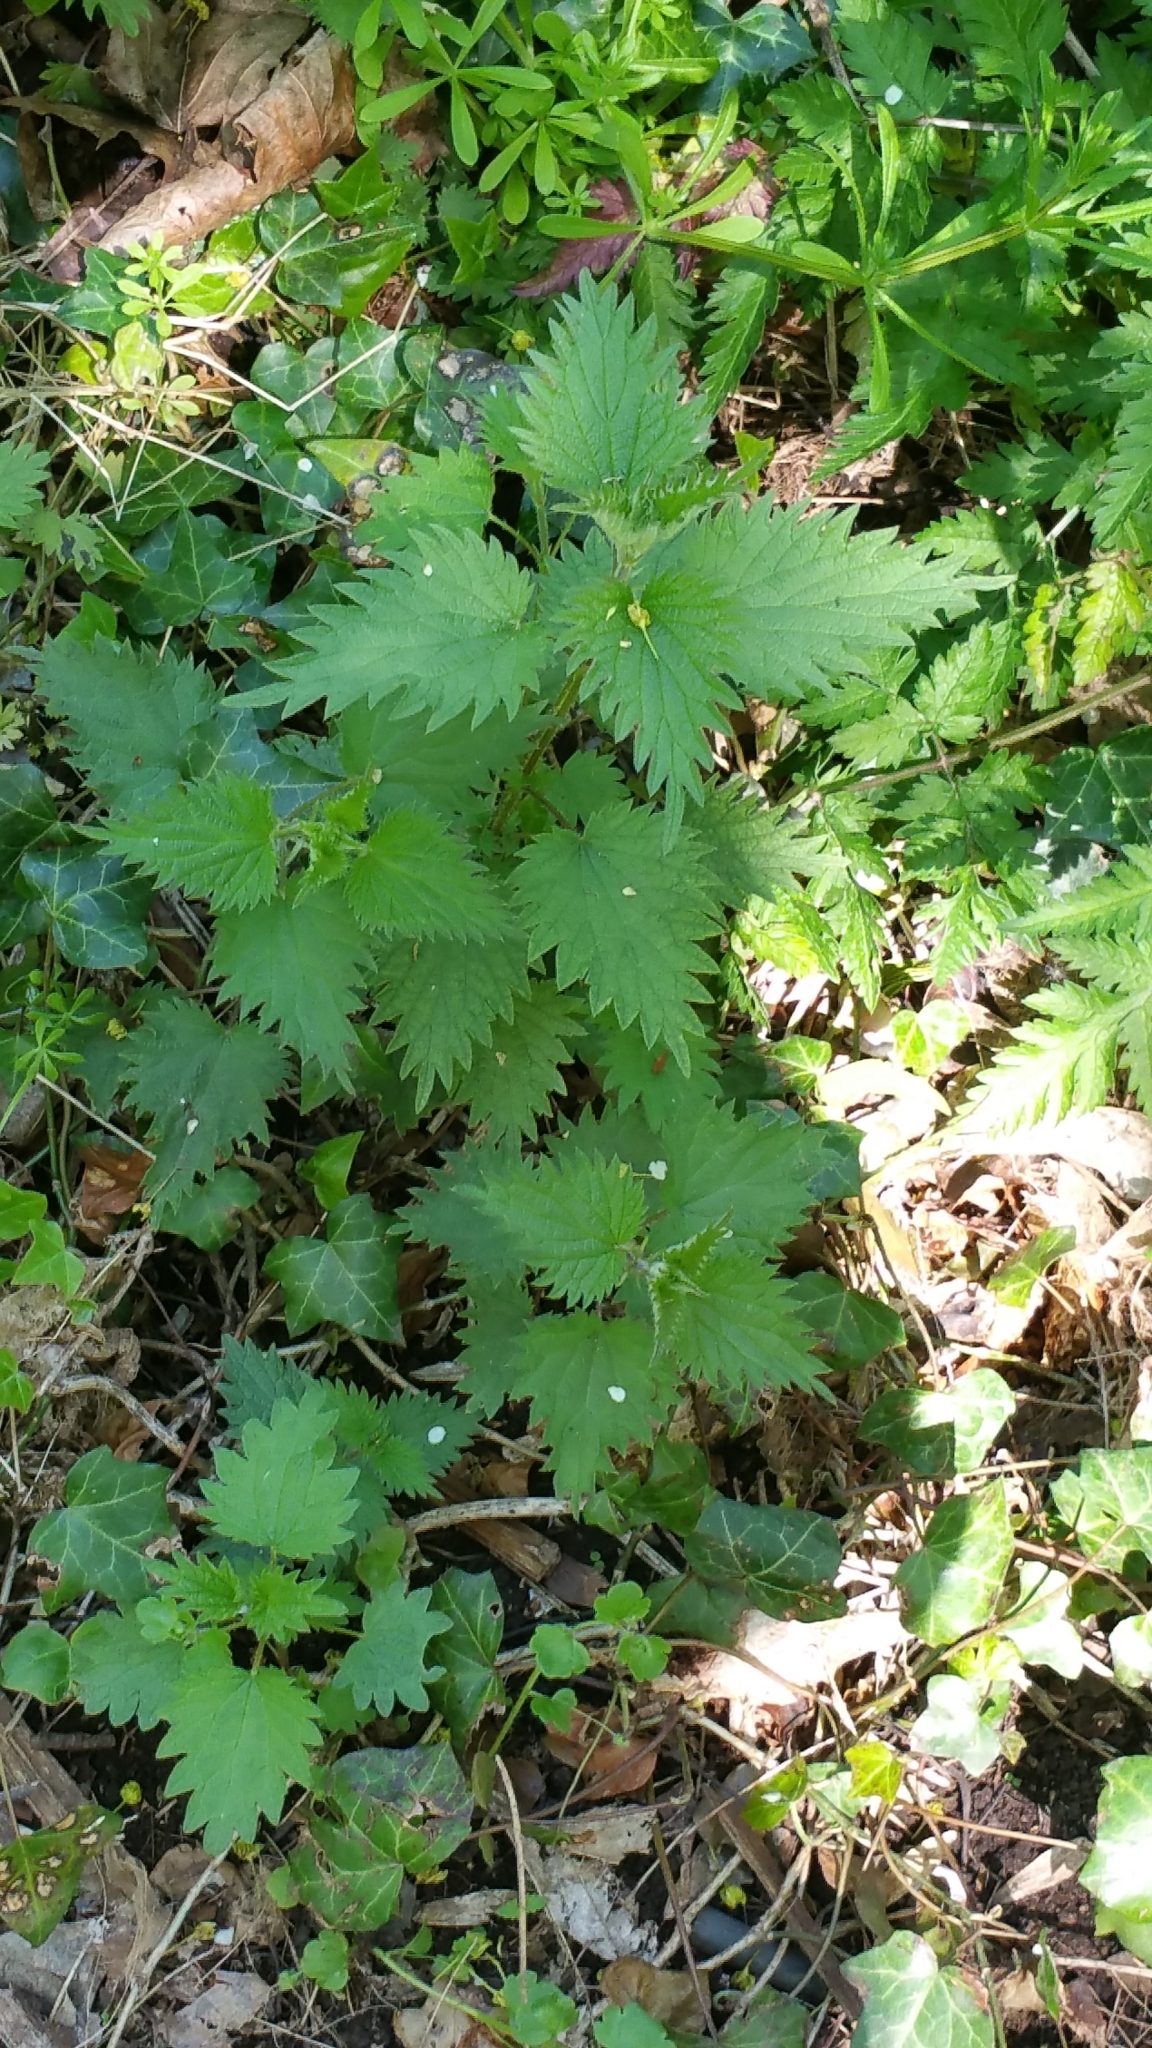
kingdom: Plantae
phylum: Tracheophyta
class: Magnoliopsida
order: Rosales
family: Urticaceae
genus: Urtica
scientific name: Urtica dioica
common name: Common nettle
